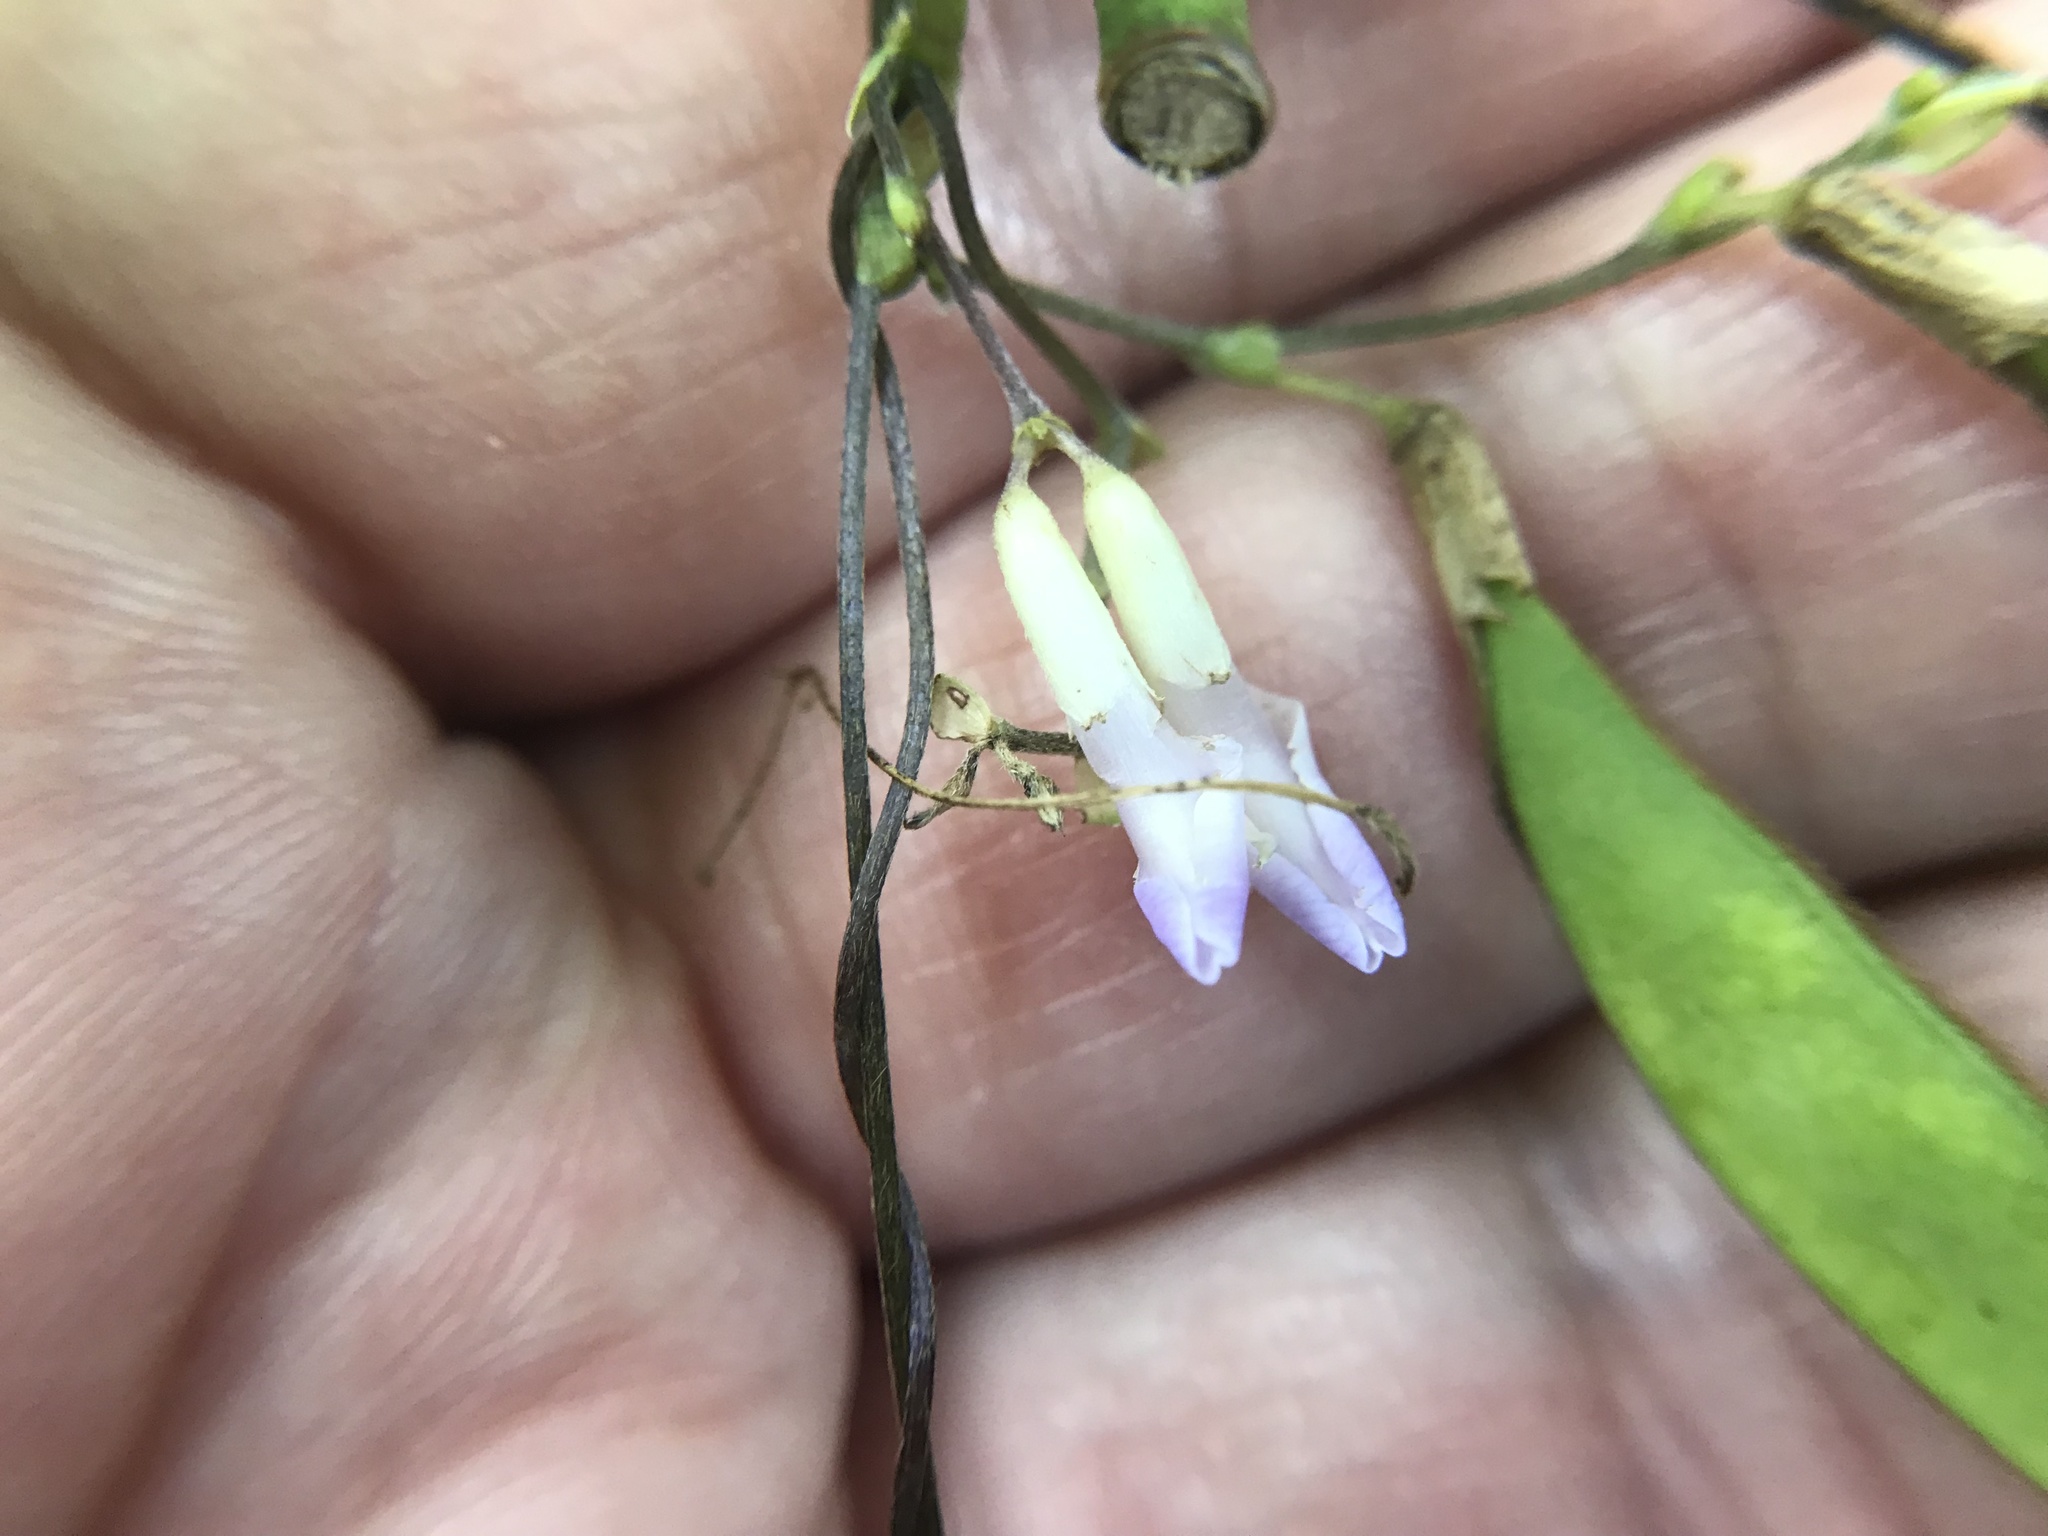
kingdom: Plantae
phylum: Tracheophyta
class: Magnoliopsida
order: Fabales
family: Fabaceae
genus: Amphicarpaea
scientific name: Amphicarpaea bracteata
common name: American hog peanut
